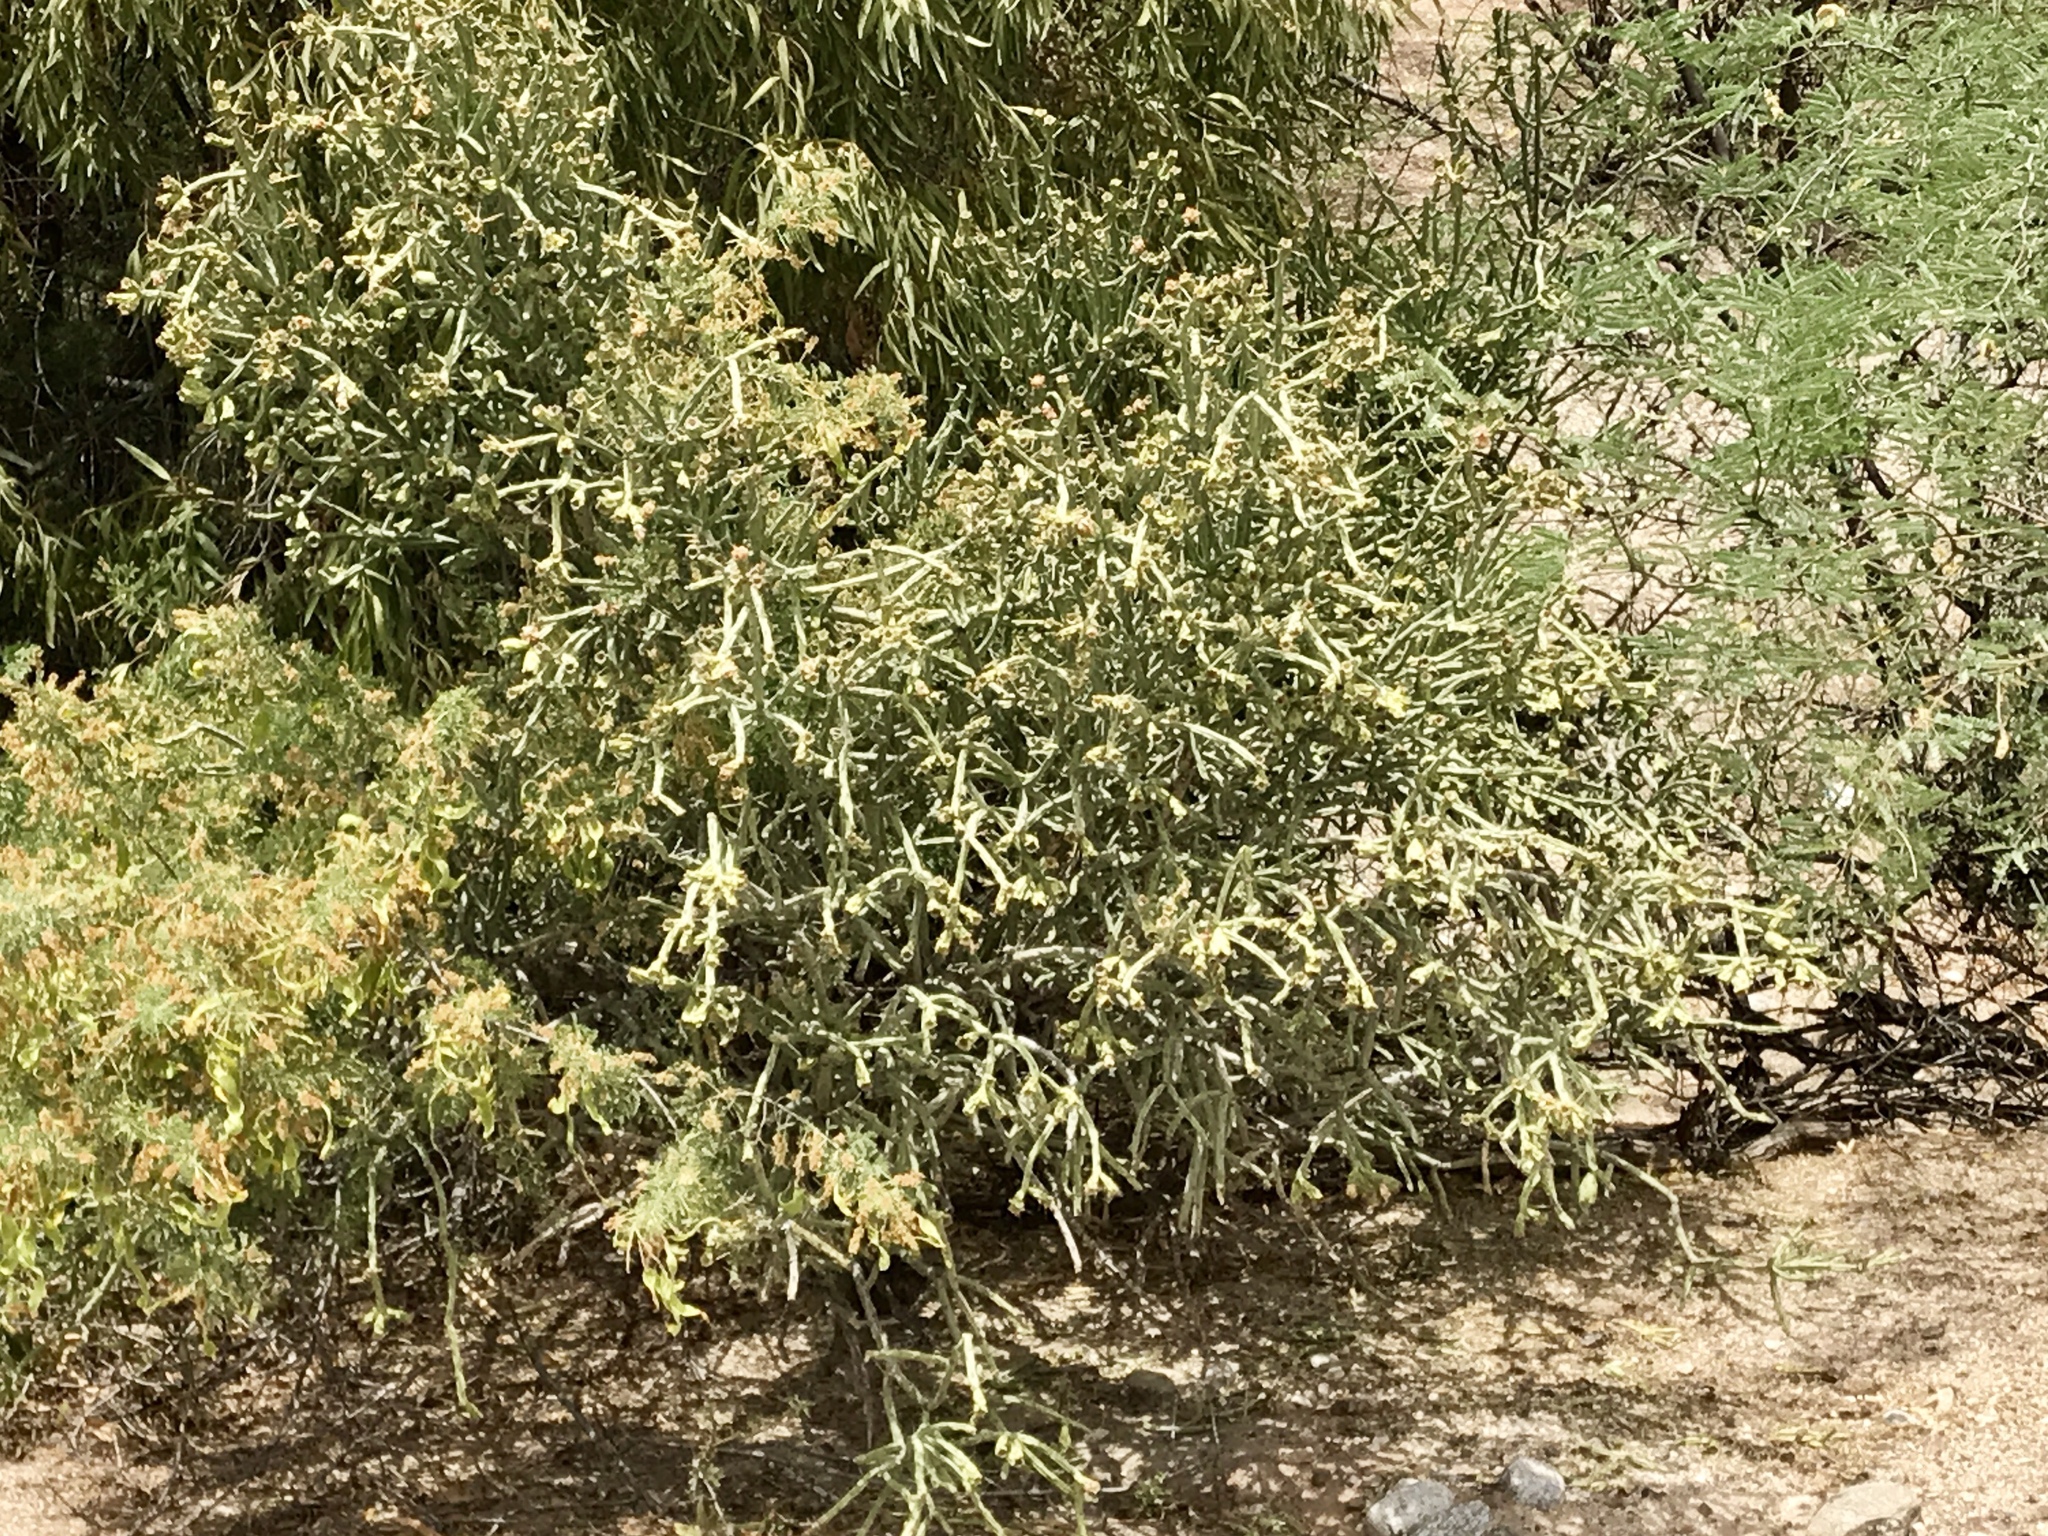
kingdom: Plantae
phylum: Tracheophyta
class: Magnoliopsida
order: Caryophyllales
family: Cactaceae
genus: Cylindropuntia
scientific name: Cylindropuntia arbuscula
